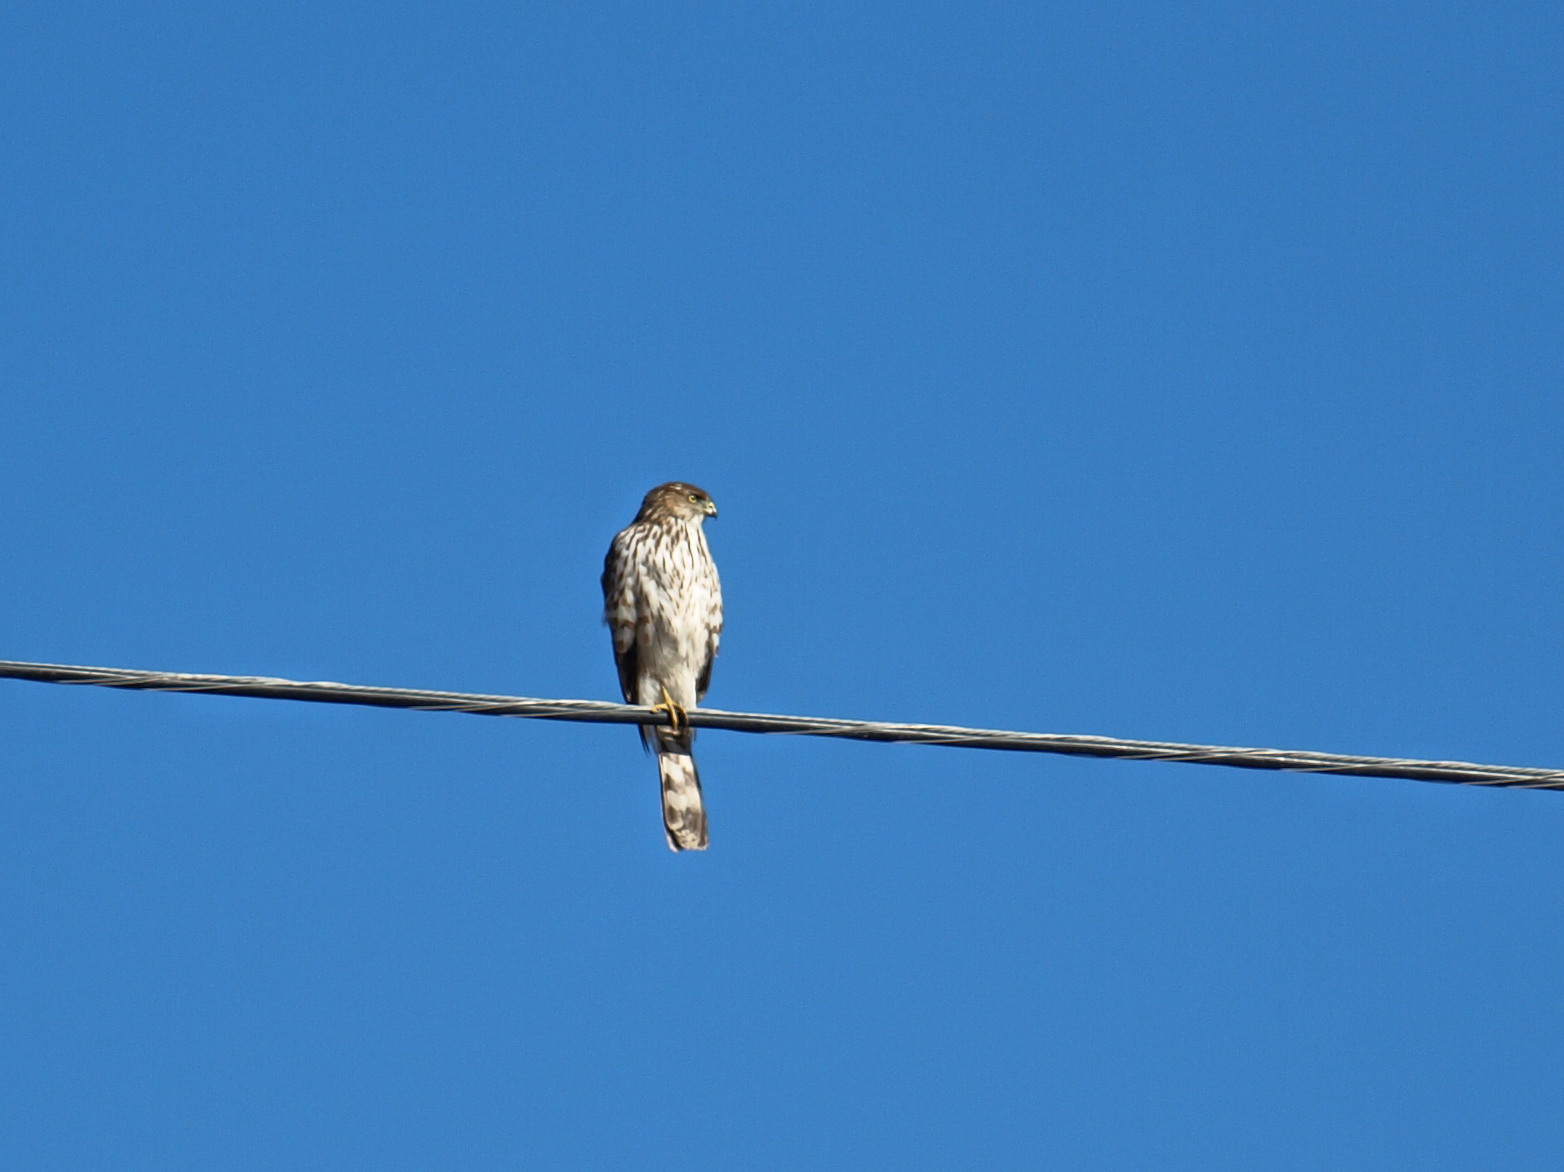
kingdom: Animalia
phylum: Chordata
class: Aves
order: Accipitriformes
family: Accipitridae
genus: Accipiter
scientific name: Accipiter cooperii
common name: Cooper's hawk
